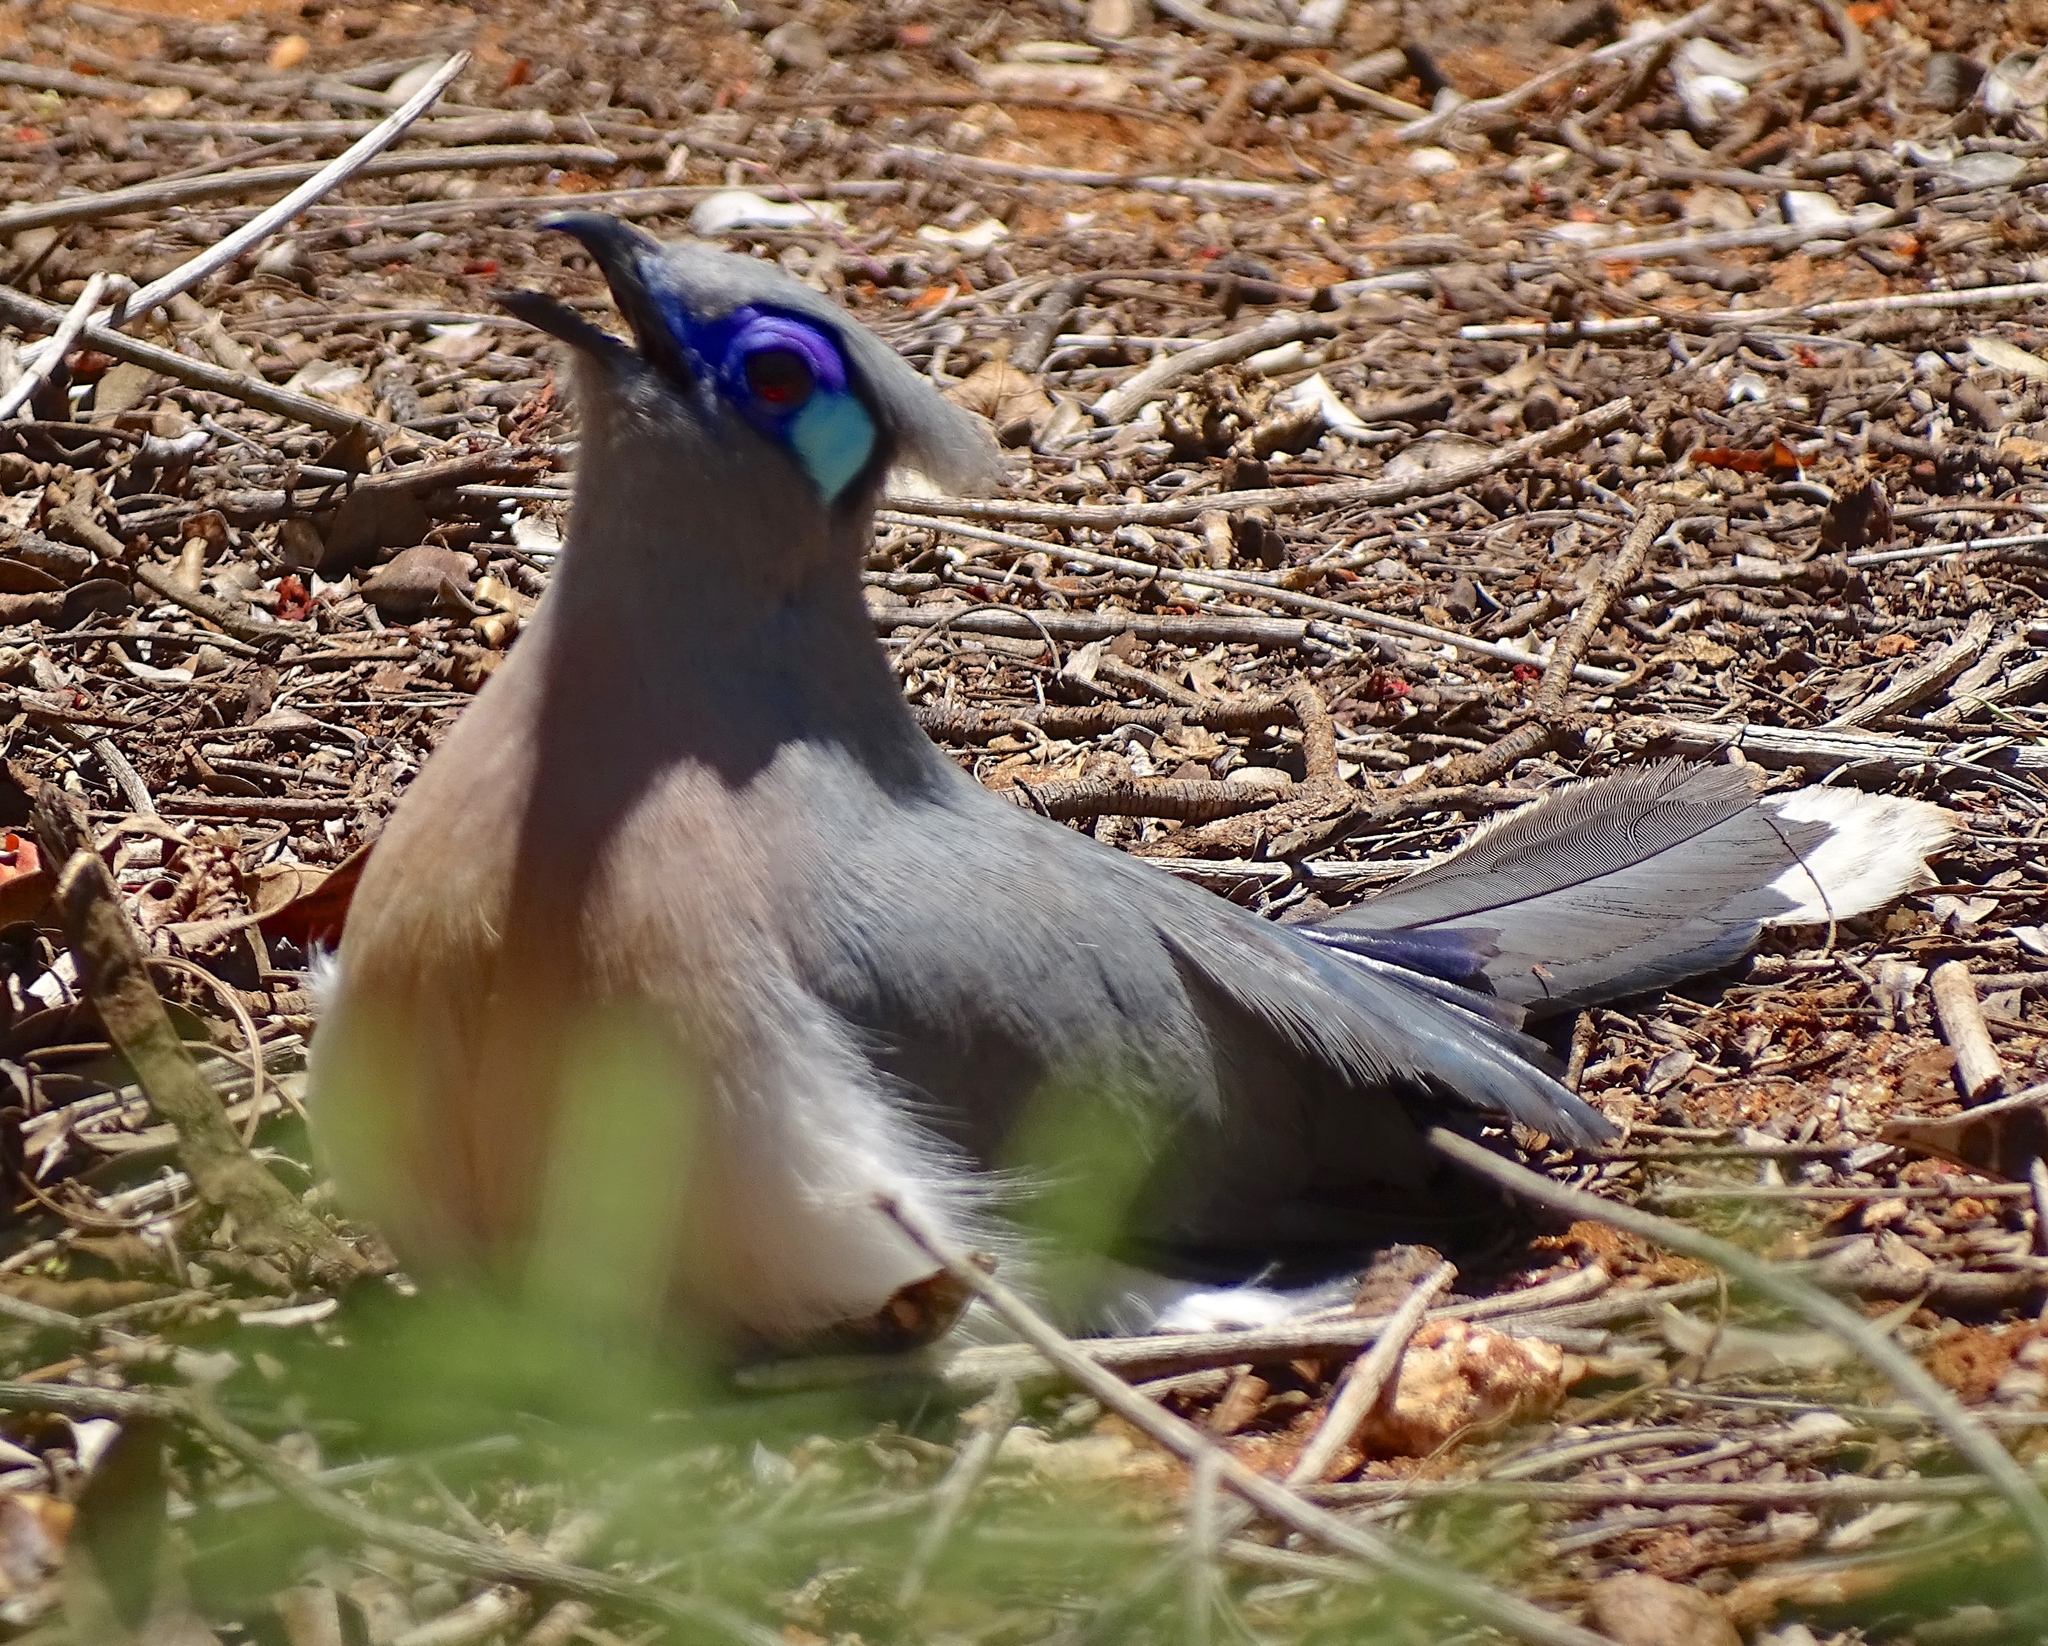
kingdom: Animalia
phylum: Chordata
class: Aves
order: Cuculiformes
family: Cuculidae
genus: Coua
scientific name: Coua cristata
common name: Crested coua
